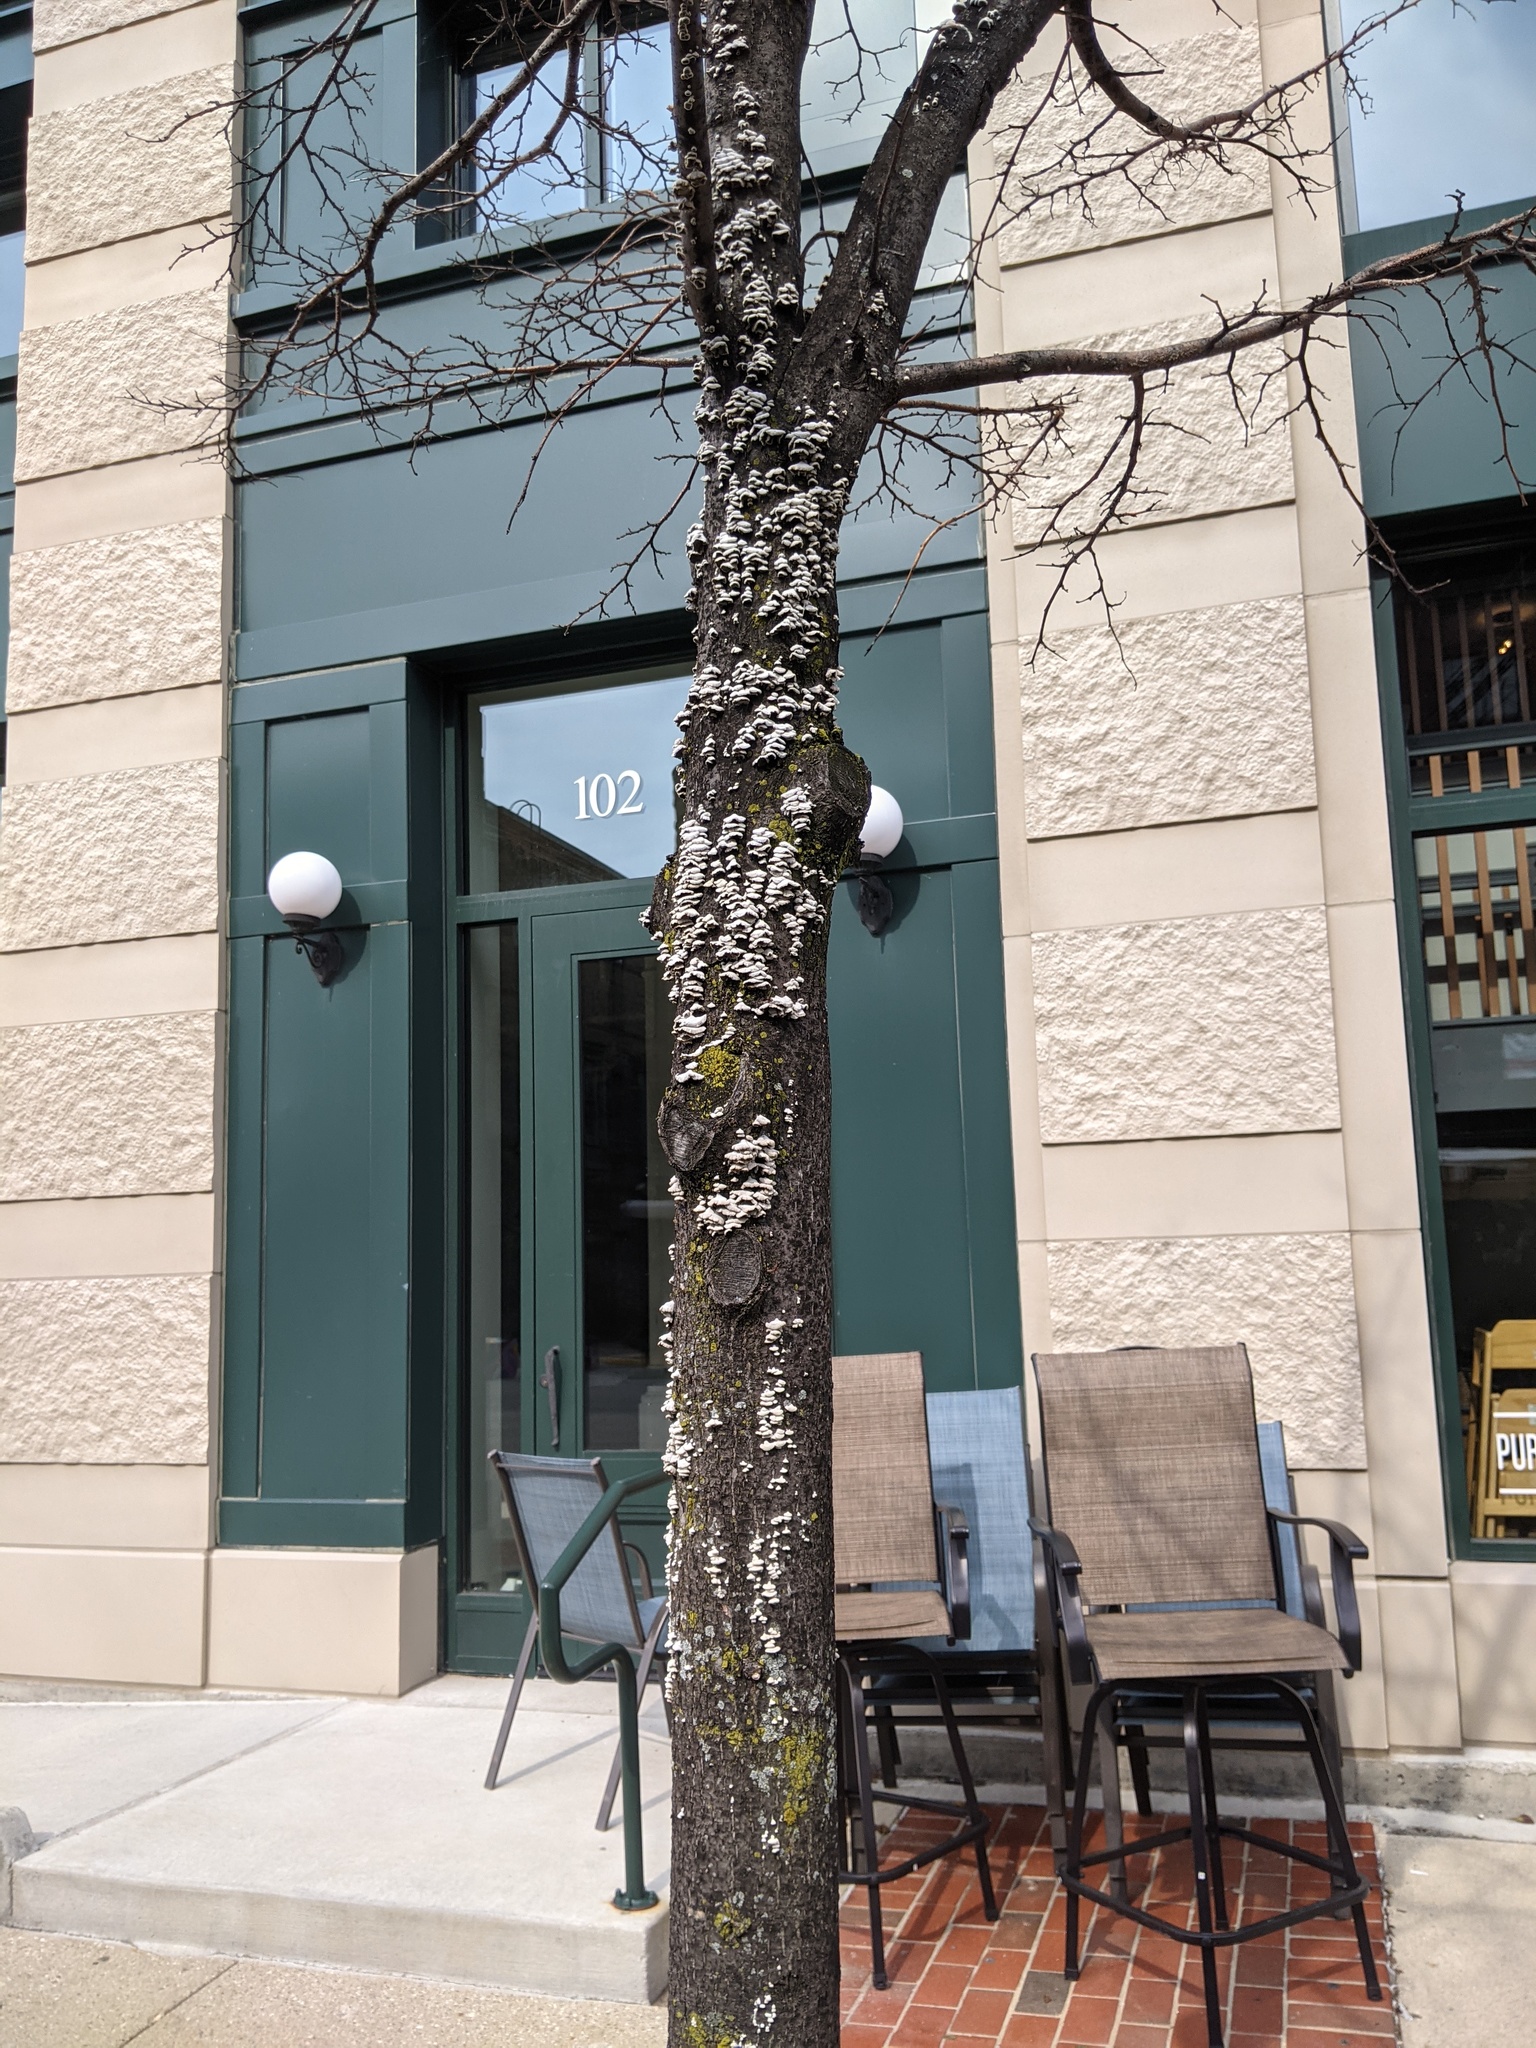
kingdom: Fungi
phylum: Basidiomycota
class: Agaricomycetes
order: Agaricales
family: Schizophyllaceae
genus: Schizophyllum
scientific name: Schizophyllum commune
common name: Common porecrust
